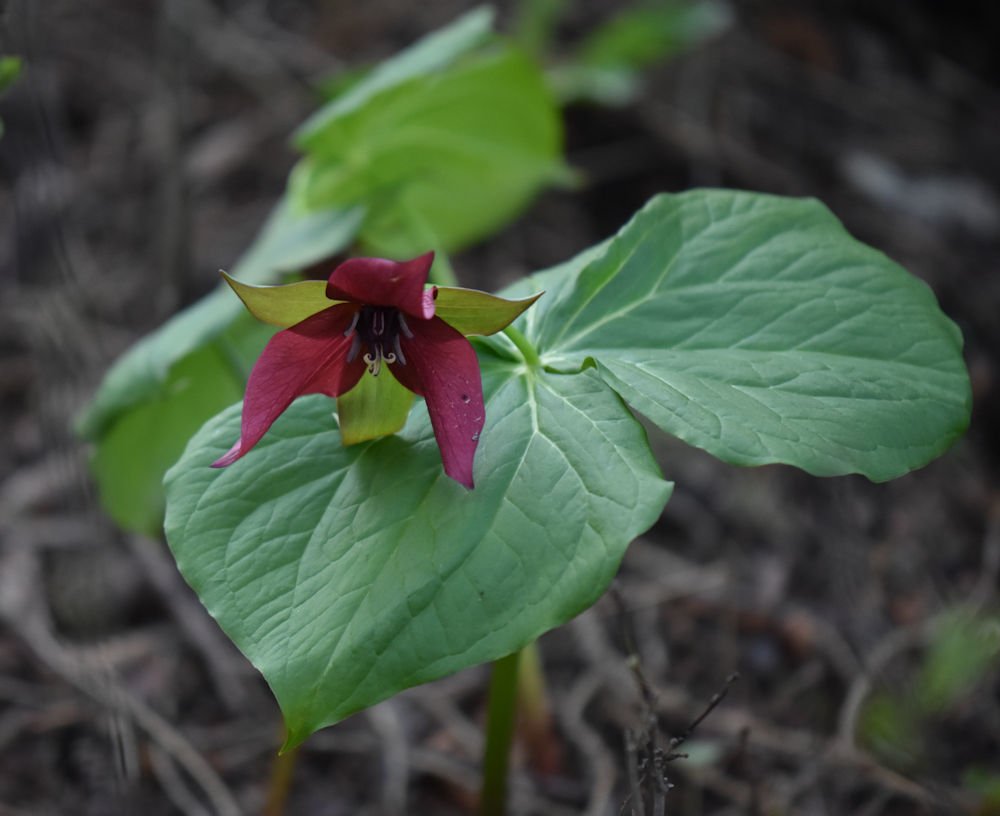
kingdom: Plantae
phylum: Tracheophyta
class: Liliopsida
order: Liliales
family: Melanthiaceae
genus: Trillium
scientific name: Trillium erectum
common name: Purple trillium
